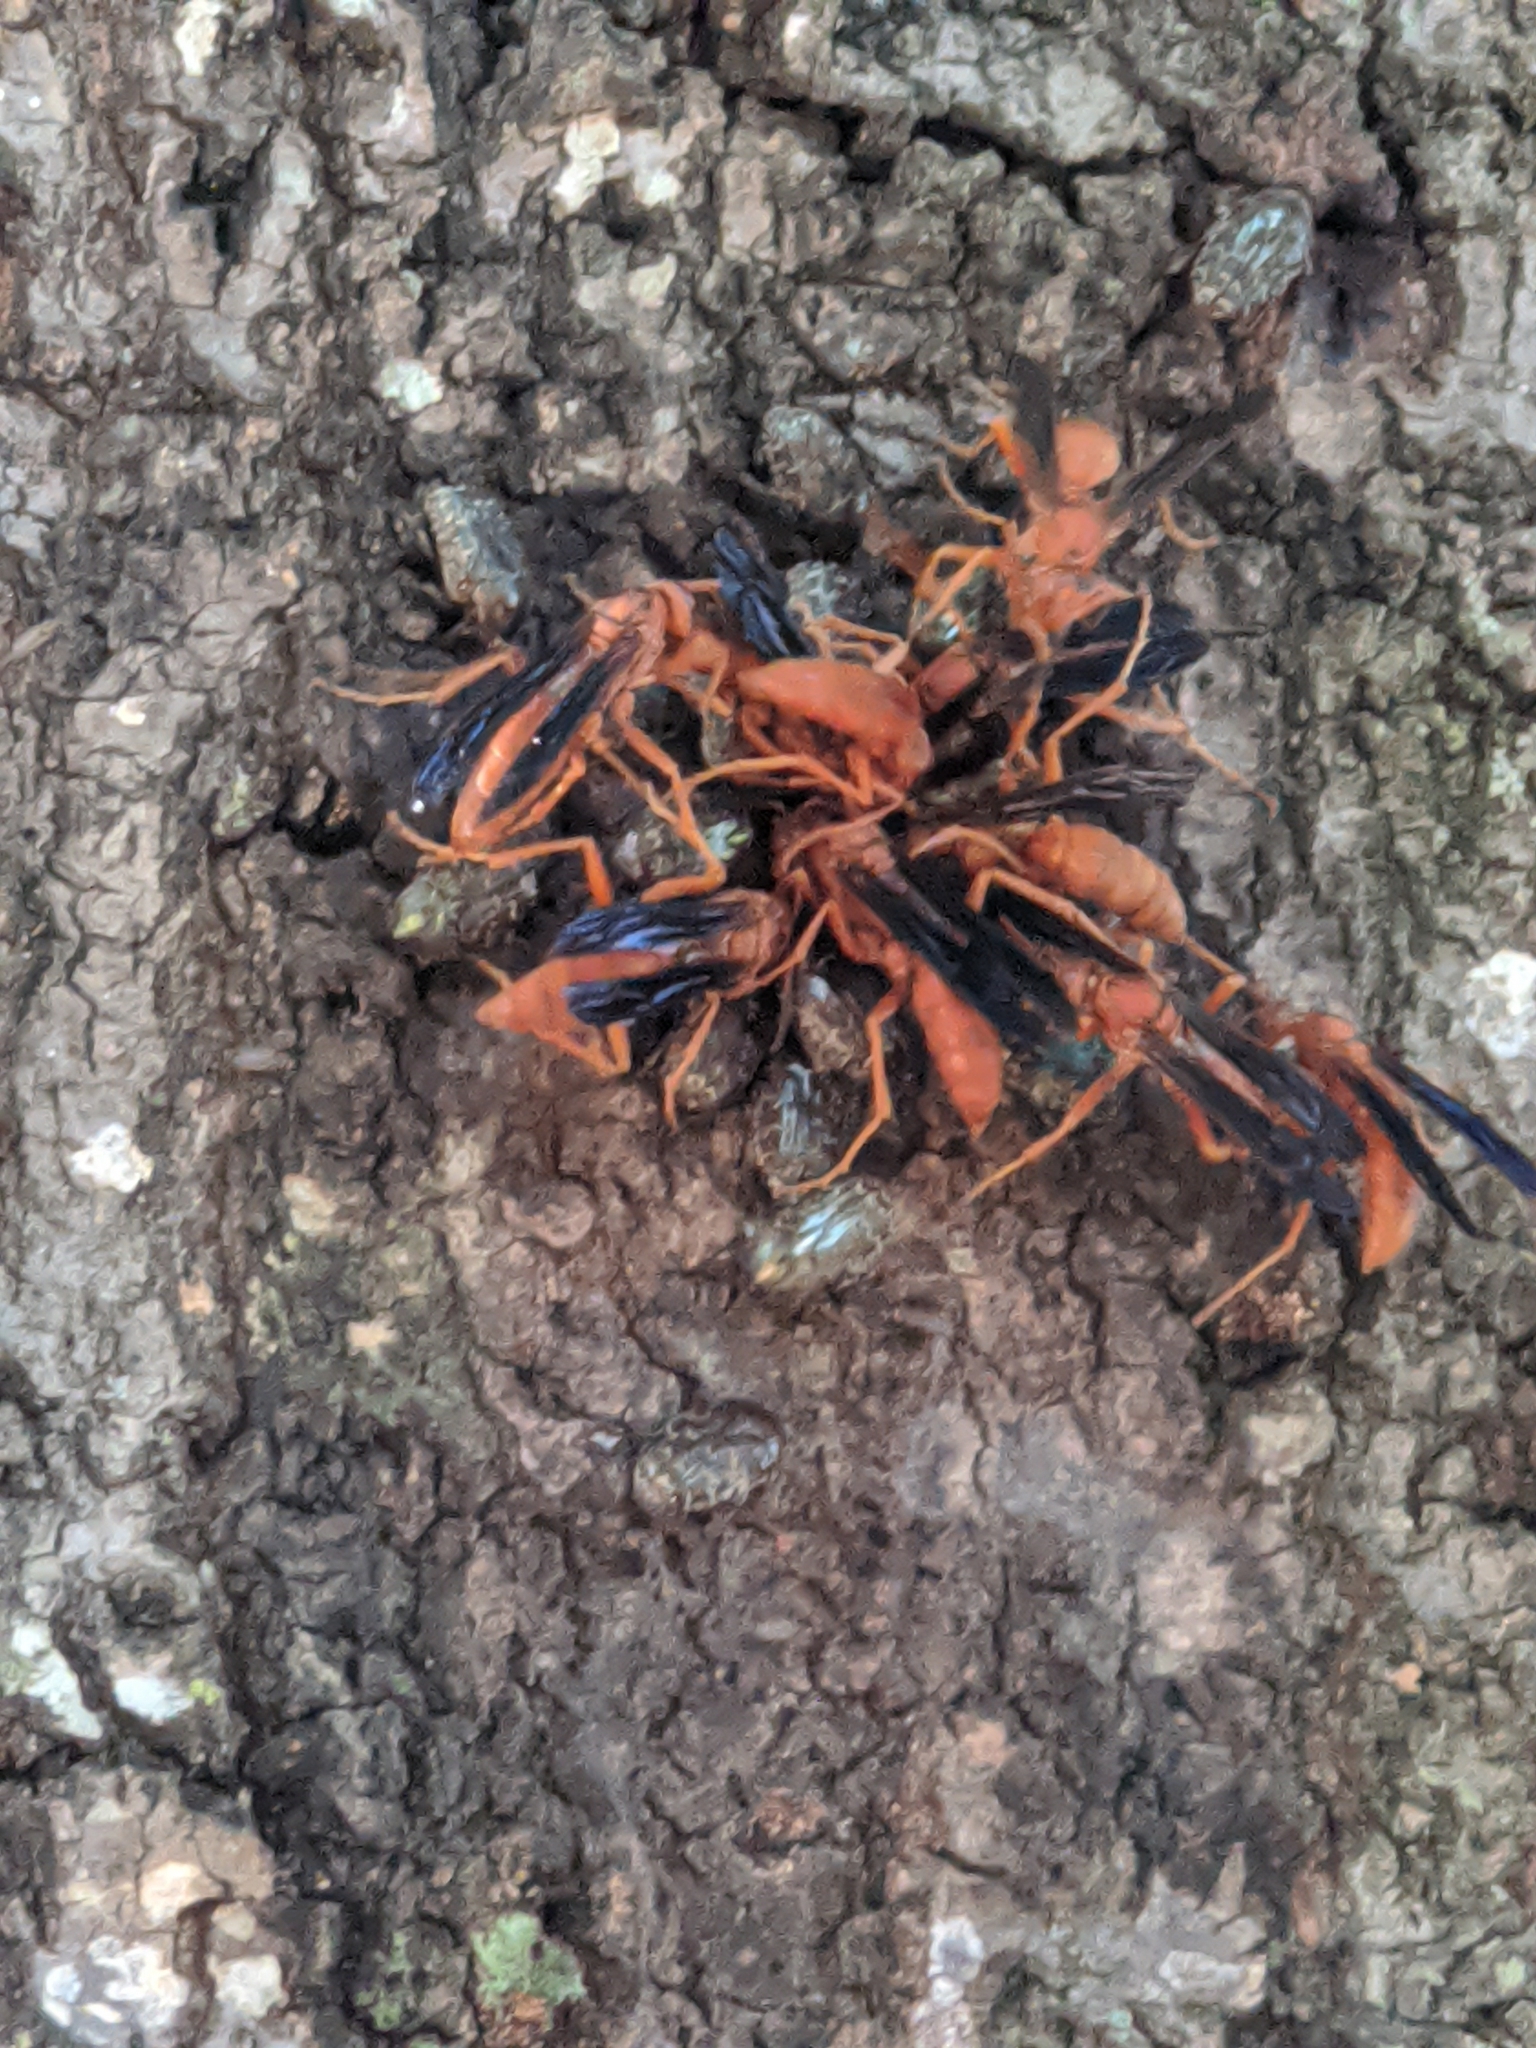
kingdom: Animalia
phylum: Arthropoda
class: Insecta
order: Hymenoptera
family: Eumenidae
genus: Polistes
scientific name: Polistes carolina
